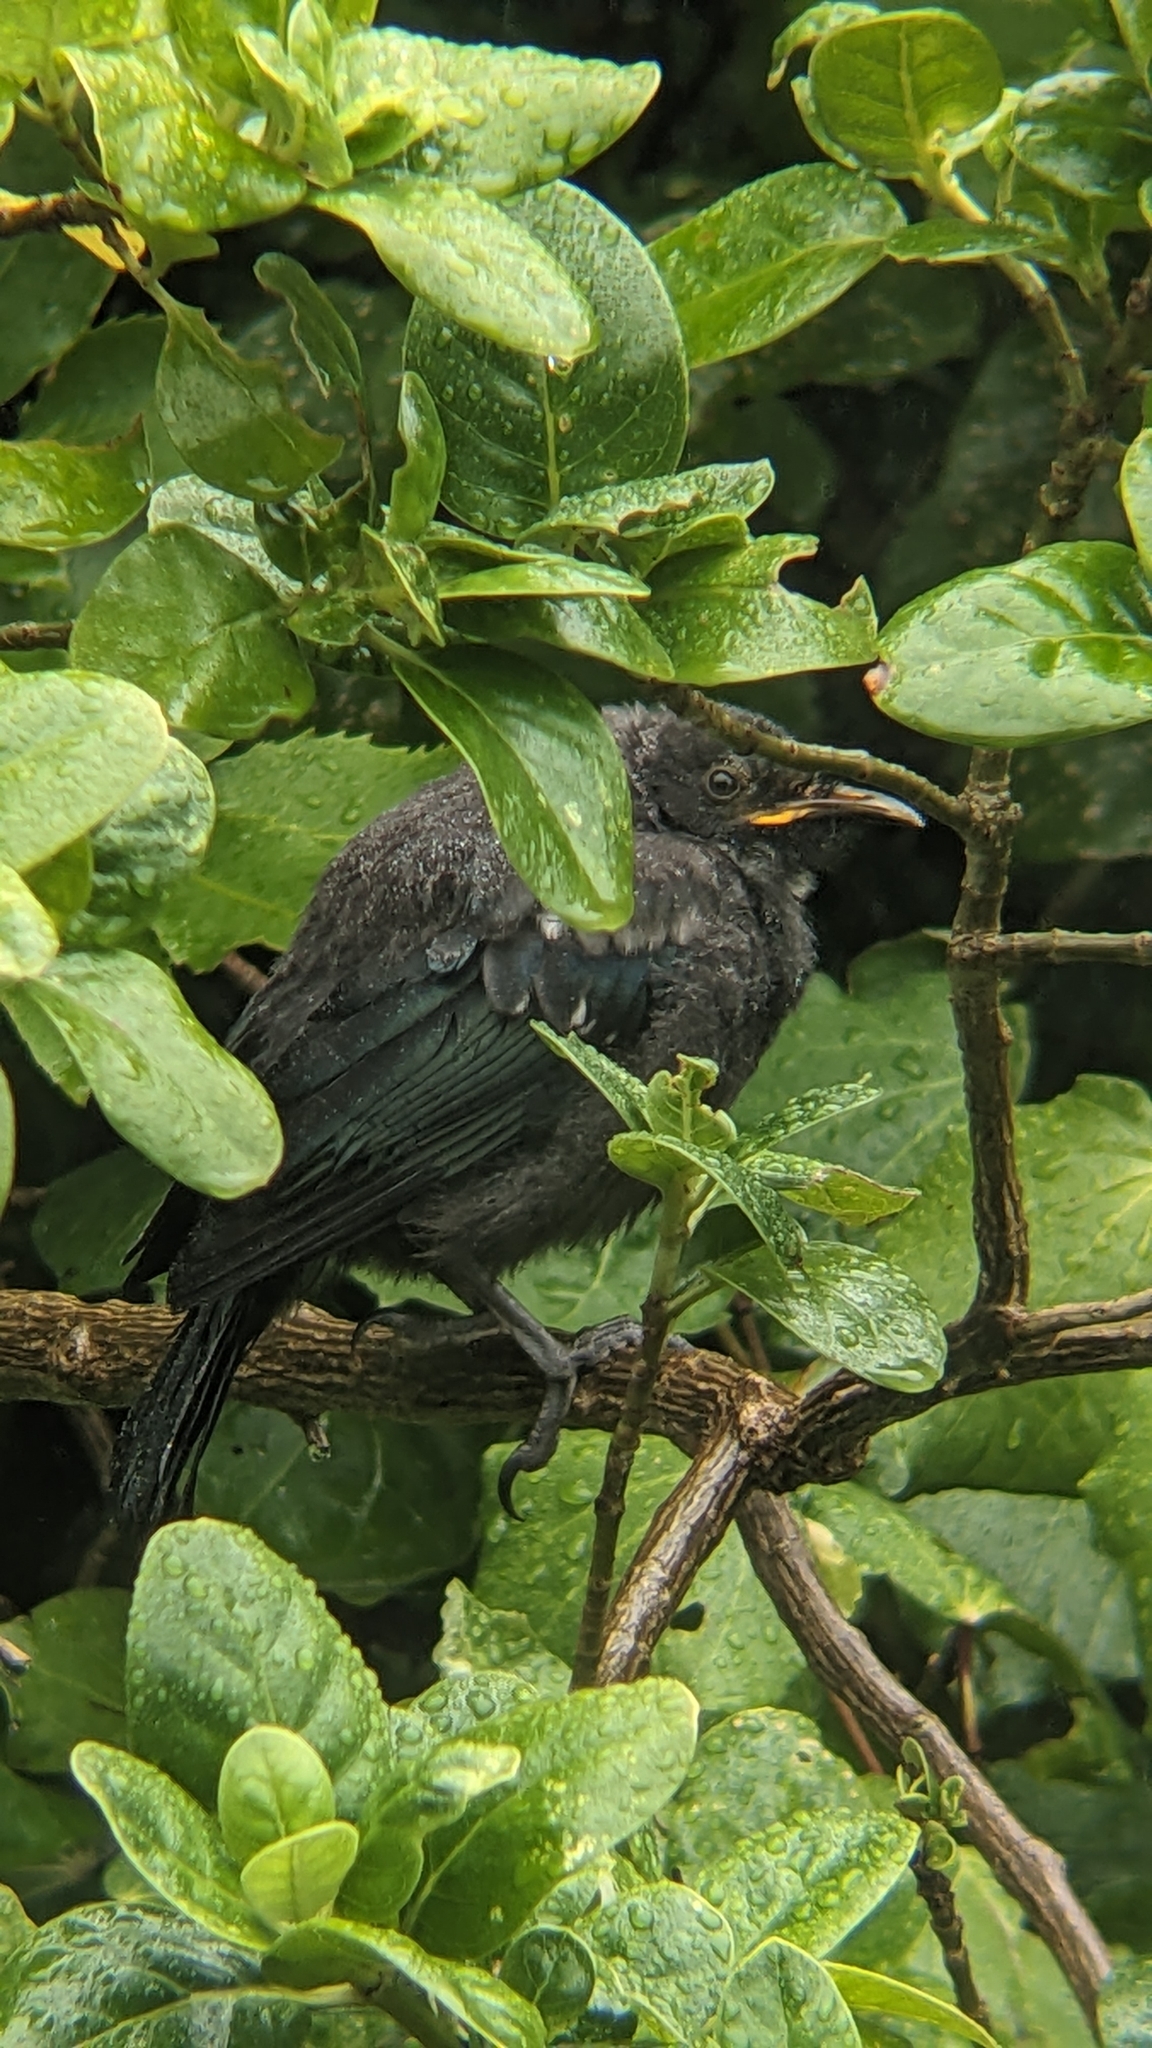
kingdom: Animalia
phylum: Chordata
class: Aves
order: Passeriformes
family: Meliphagidae
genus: Prosthemadera
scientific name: Prosthemadera novaeseelandiae
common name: Tui
